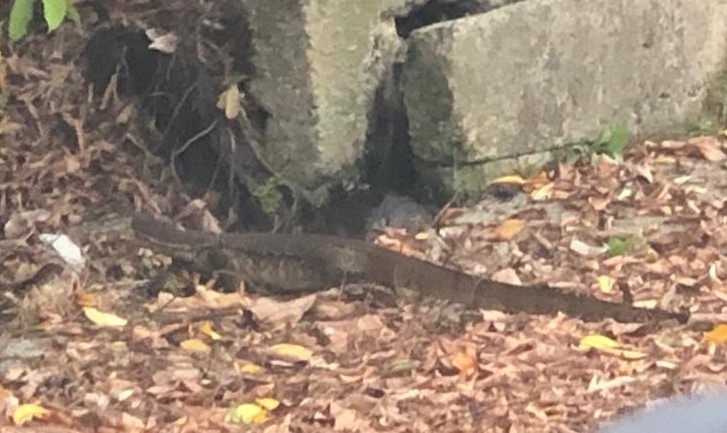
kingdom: Animalia
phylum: Chordata
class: Squamata
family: Varanidae
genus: Varanus
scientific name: Varanus salvator
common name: Common water monitor
